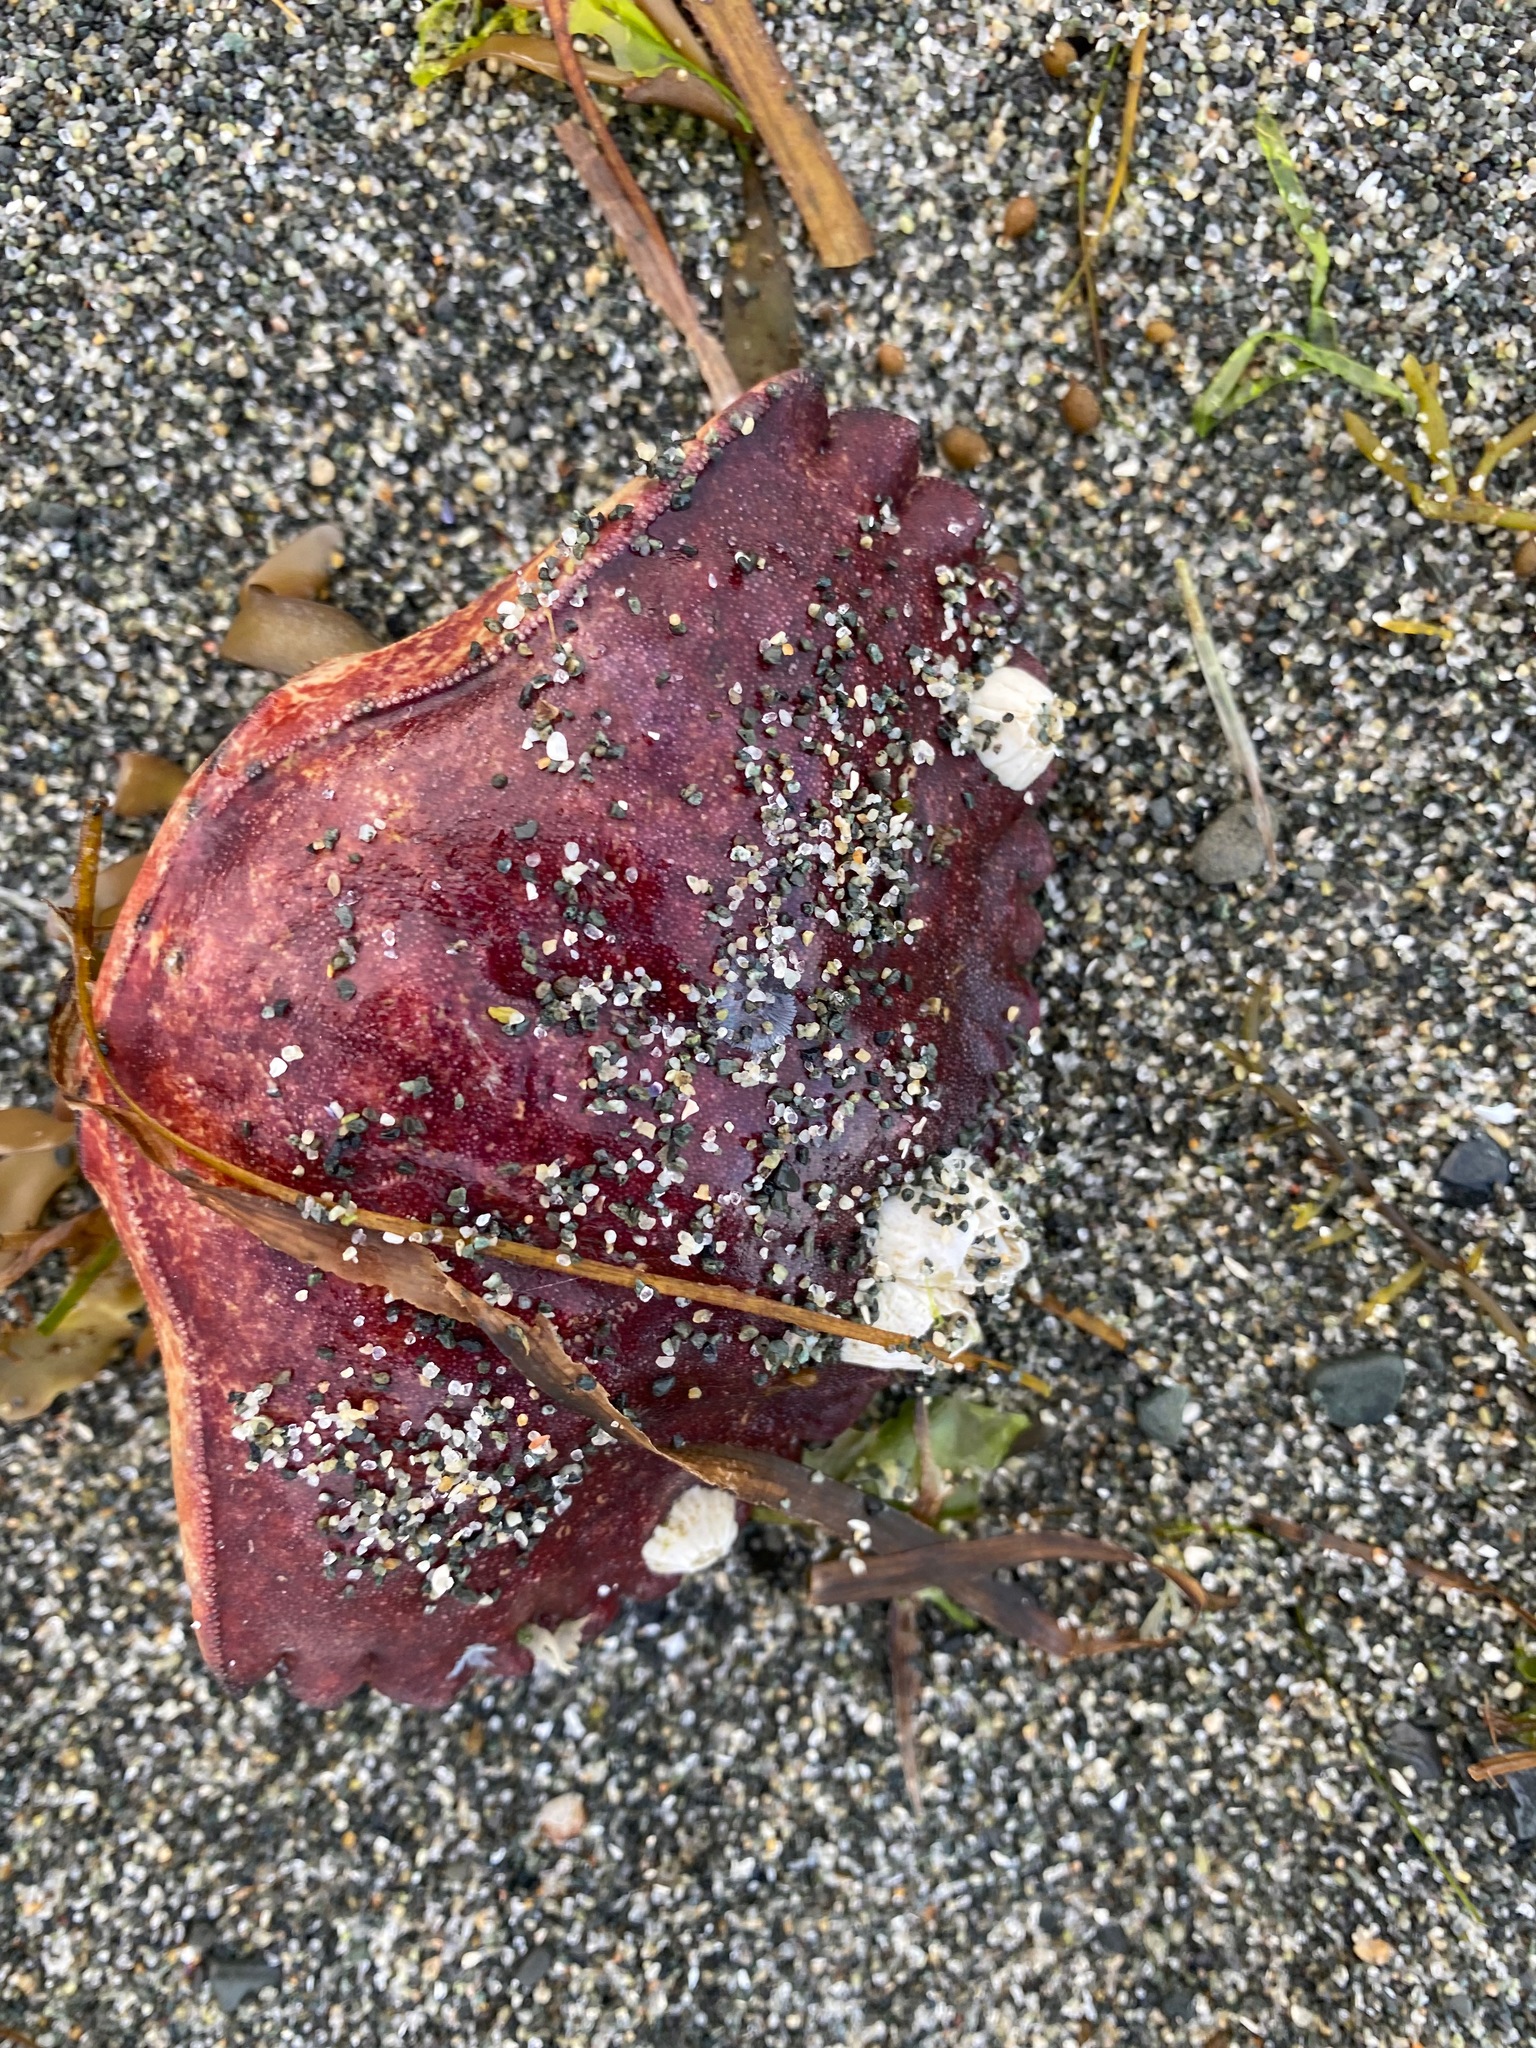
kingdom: Animalia
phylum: Arthropoda
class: Malacostraca
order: Decapoda
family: Cancridae
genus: Cancer
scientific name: Cancer productus
